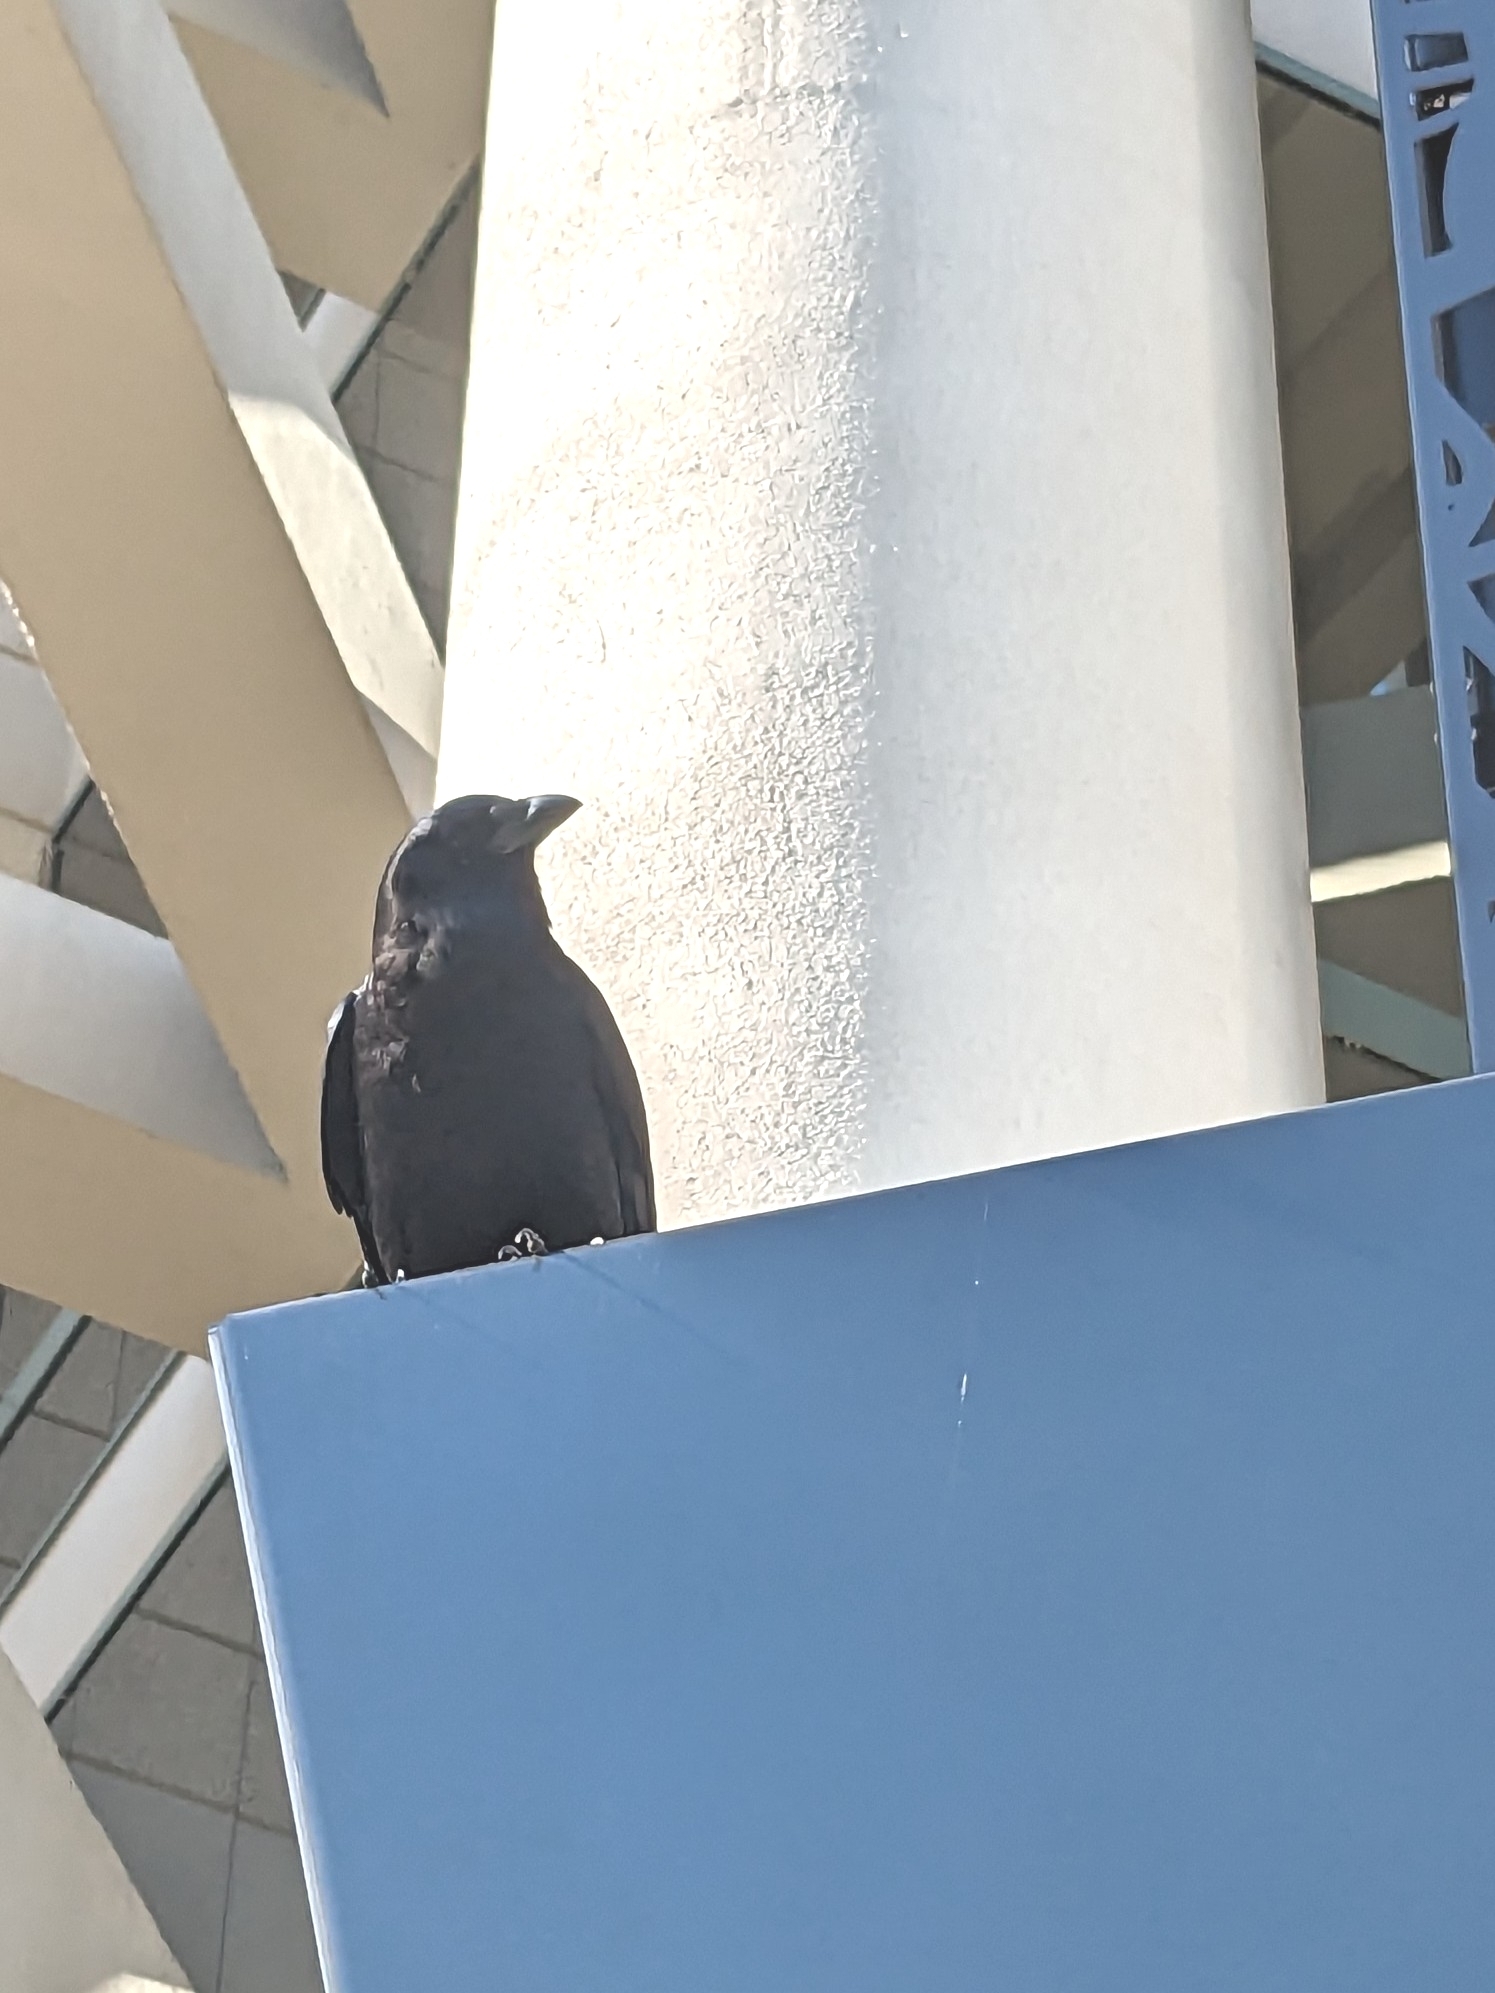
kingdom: Animalia
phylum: Chordata
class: Aves
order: Passeriformes
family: Corvidae
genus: Corvus
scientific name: Corvus brachyrhynchos
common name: American crow
